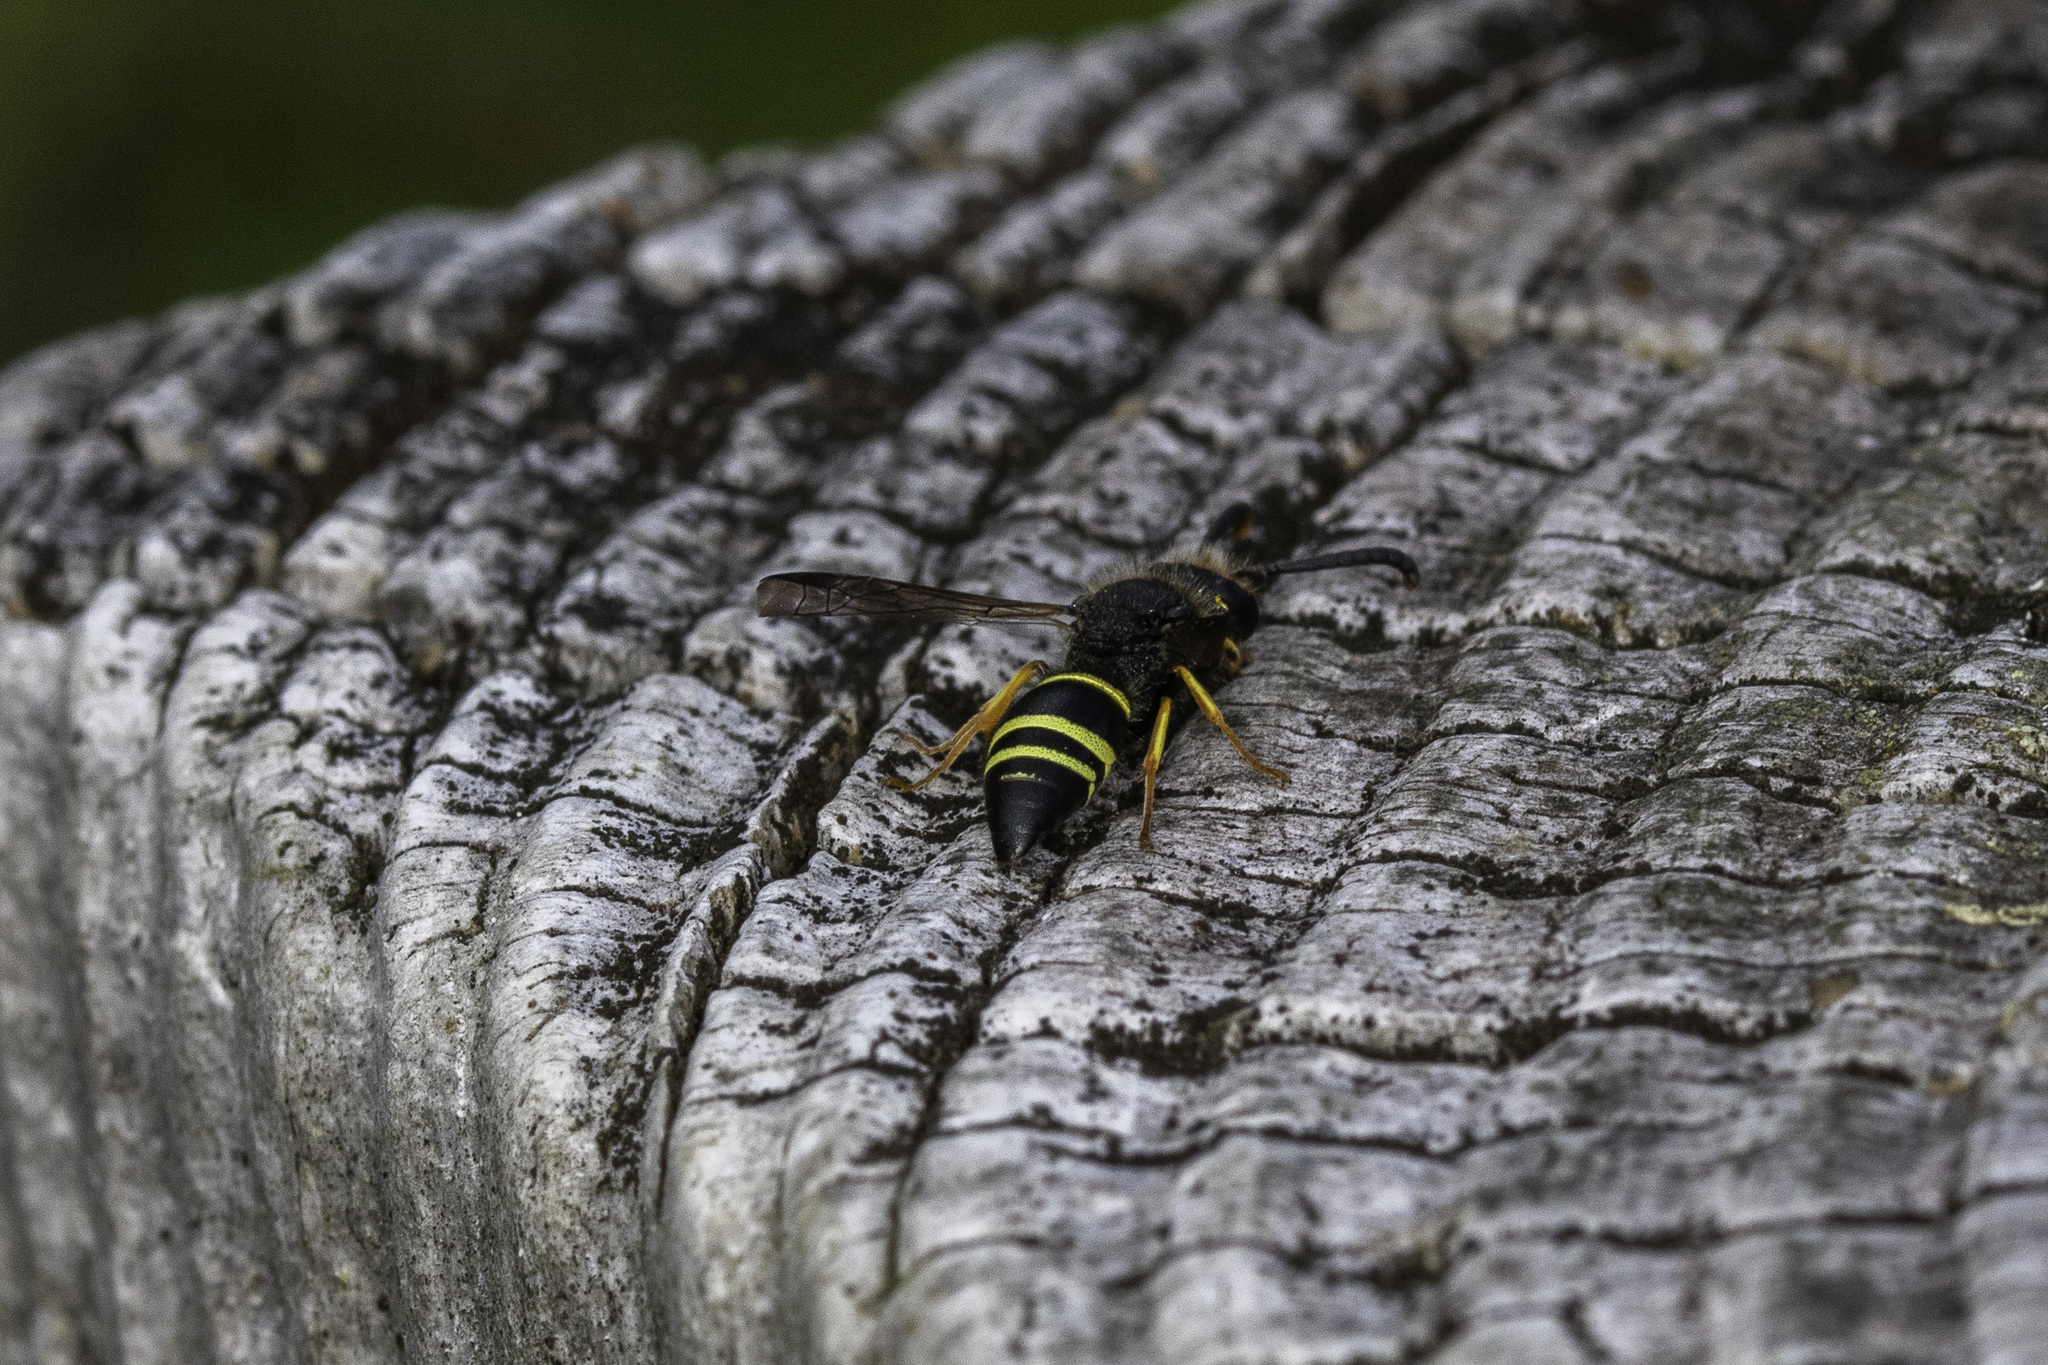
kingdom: Animalia
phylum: Arthropoda
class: Insecta
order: Hymenoptera
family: Vespidae
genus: Ancistrocerus
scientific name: Ancistrocerus scoticus
